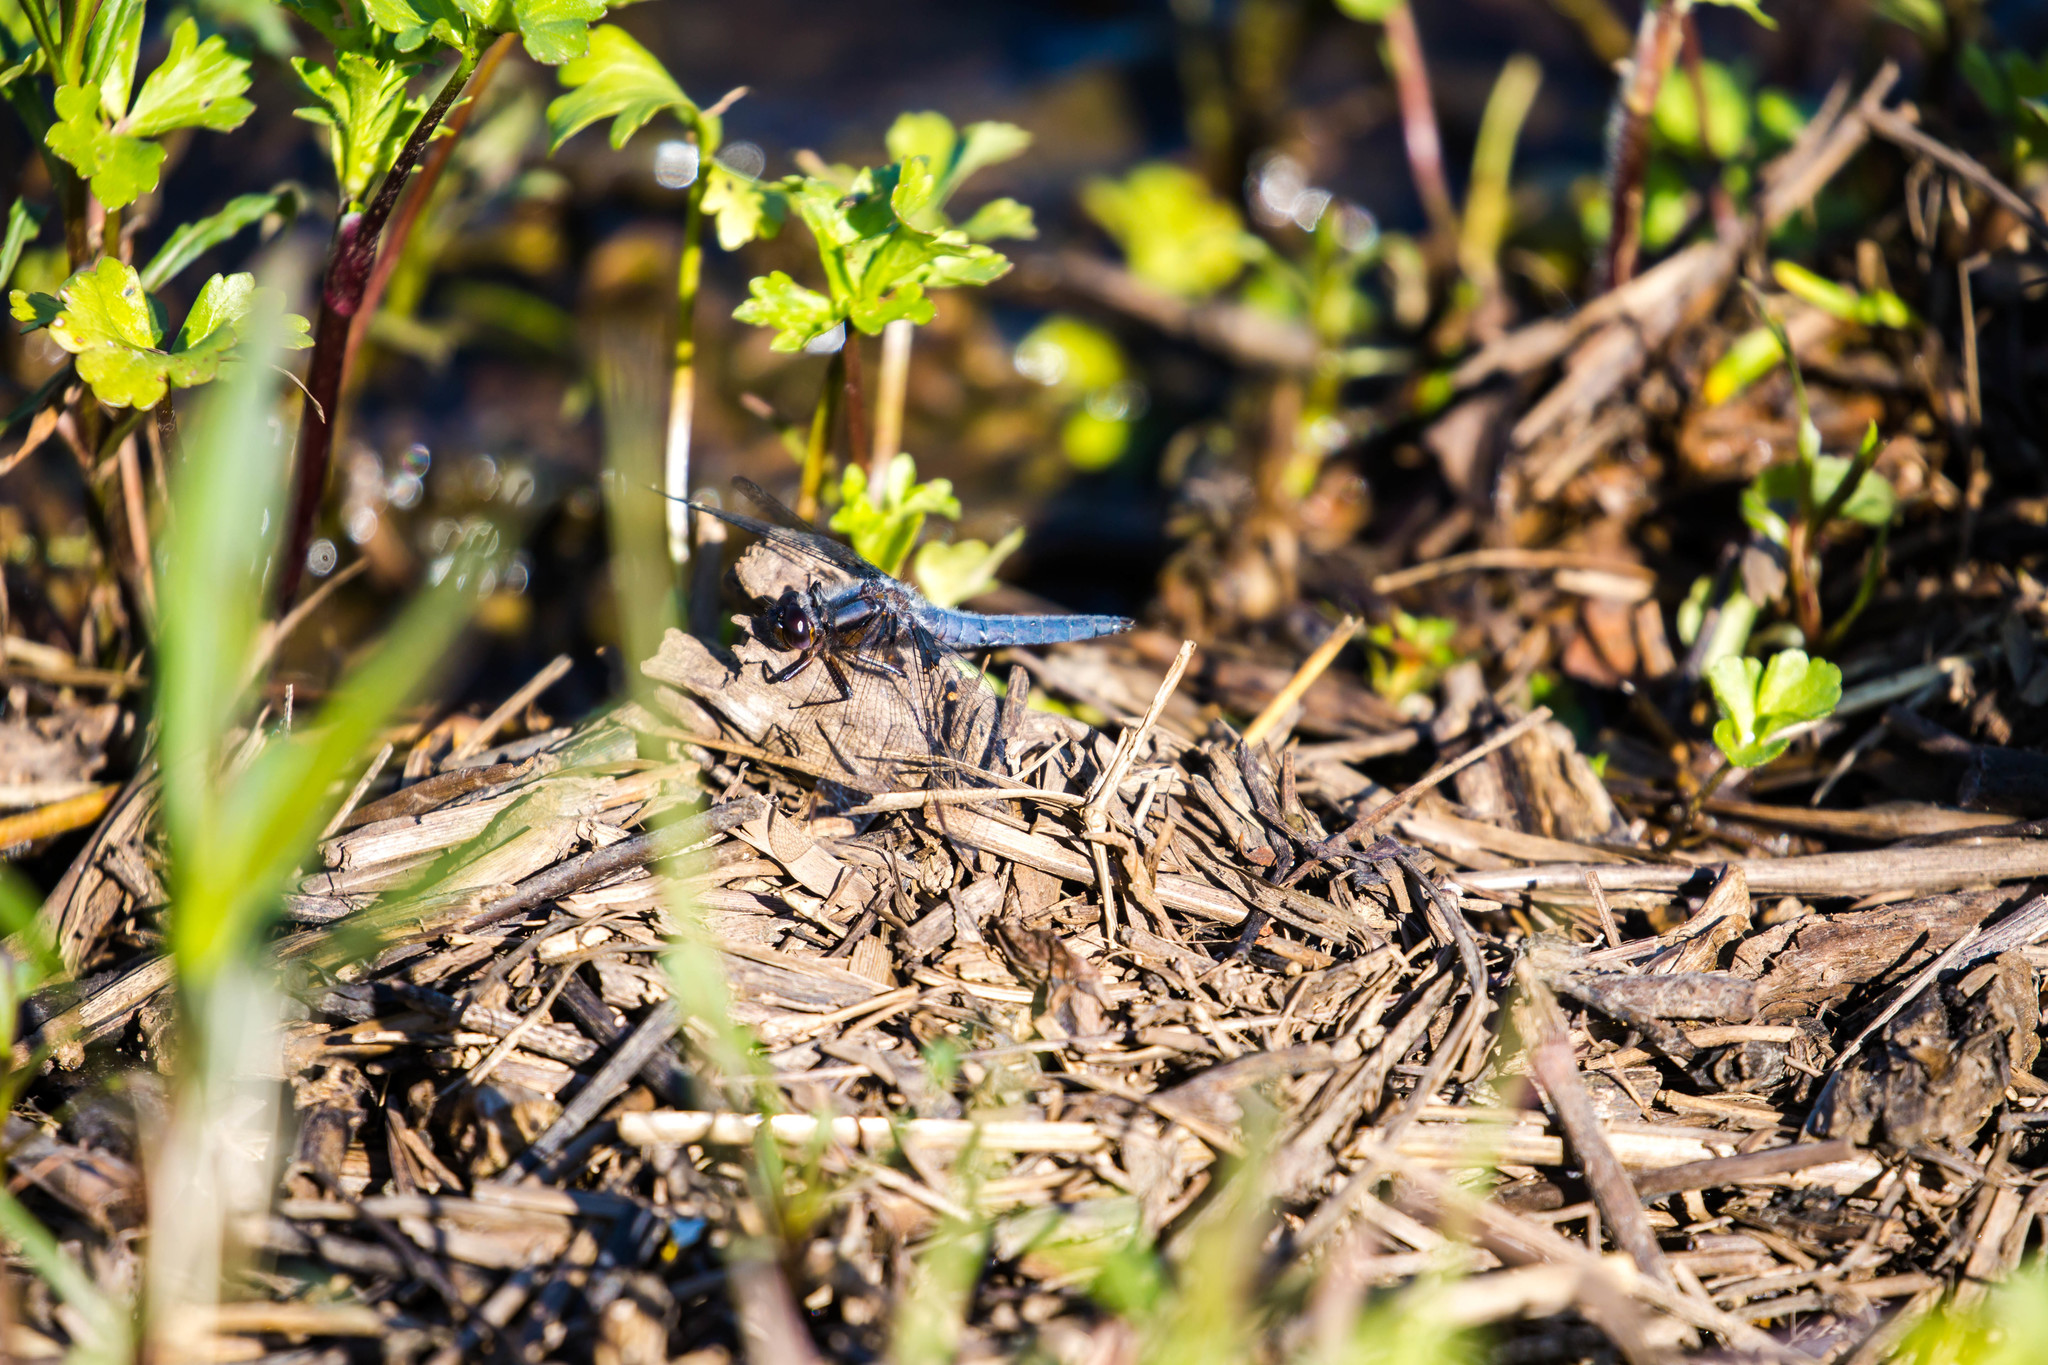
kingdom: Animalia
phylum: Arthropoda
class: Insecta
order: Odonata
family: Libellulidae
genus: Ladona
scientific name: Ladona deplanata
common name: Blue corporal
